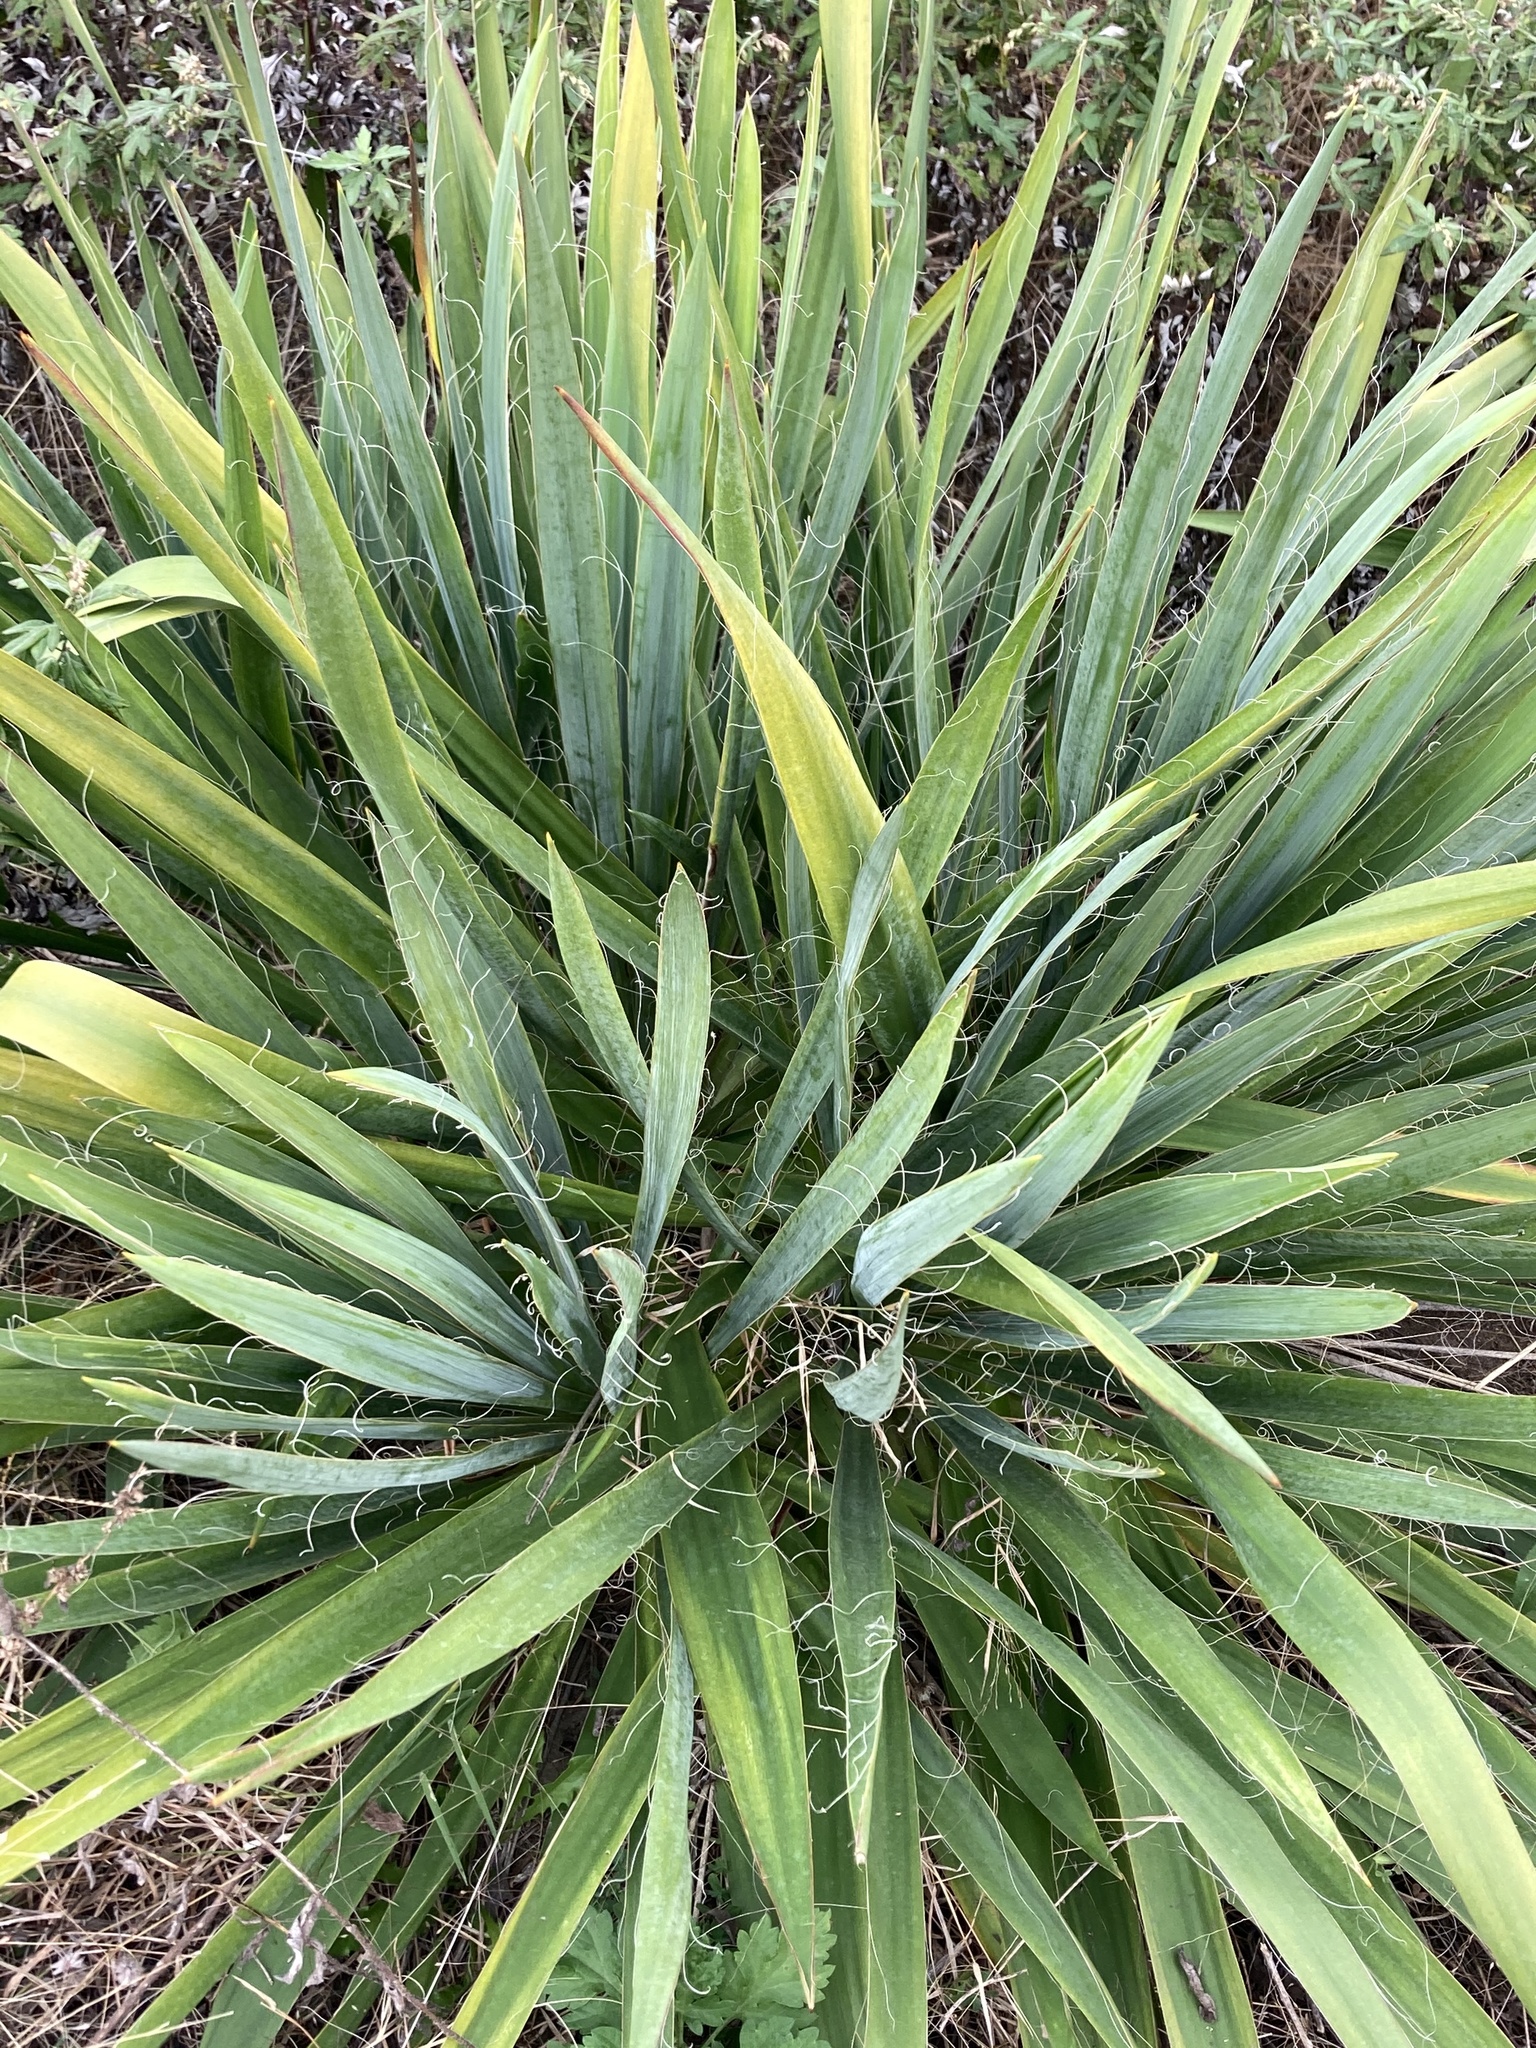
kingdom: Plantae
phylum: Tracheophyta
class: Liliopsida
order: Asparagales
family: Asparagaceae
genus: Yucca
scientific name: Yucca filamentosa
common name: Adam's-needle
